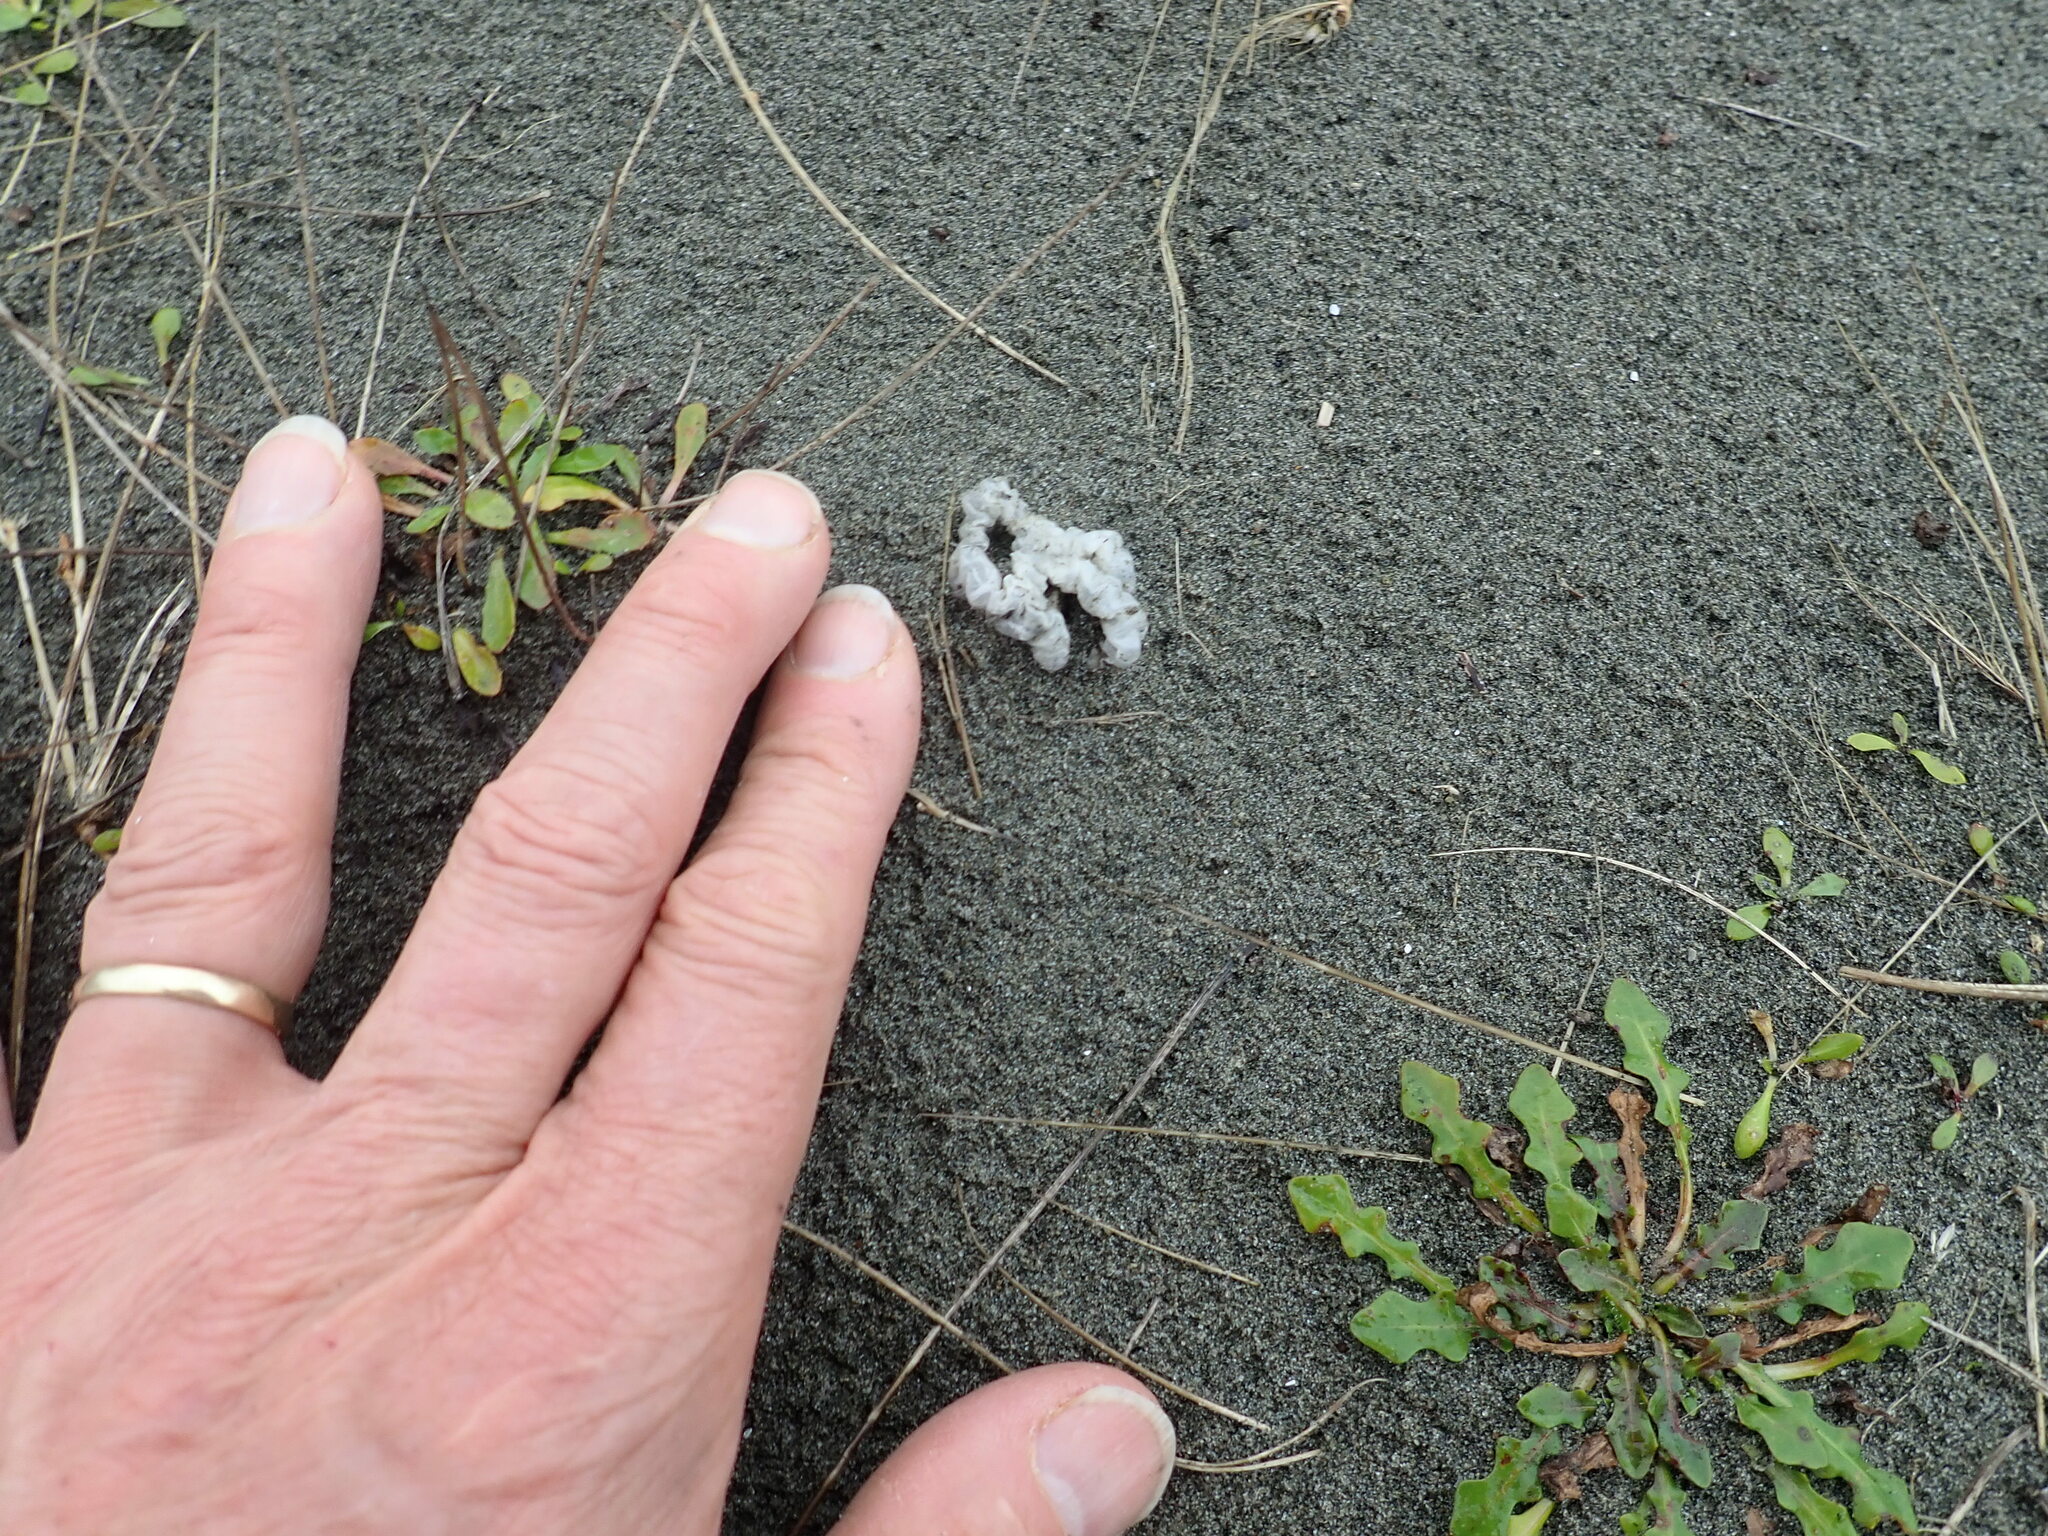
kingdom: Fungi
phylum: Basidiomycota
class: Agaricomycetes
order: Phallales
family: Phallaceae
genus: Ileodictyon
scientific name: Ileodictyon cibarium
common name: Basket fungus
